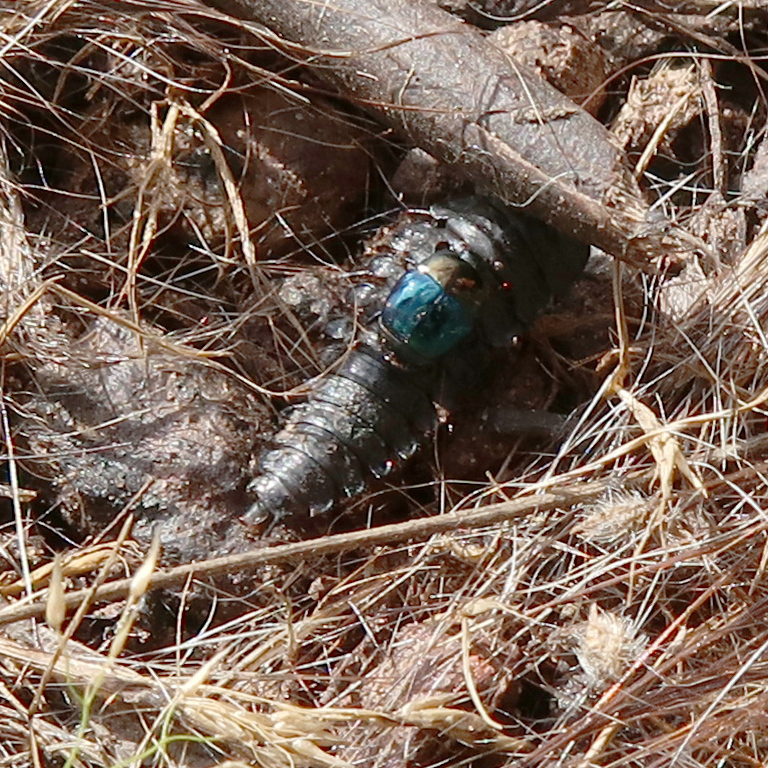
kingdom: Animalia
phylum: Arthropoda
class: Insecta
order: Coleoptera
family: Staphylinidae
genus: Ptomaphila
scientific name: Ptomaphila lacrymosa
